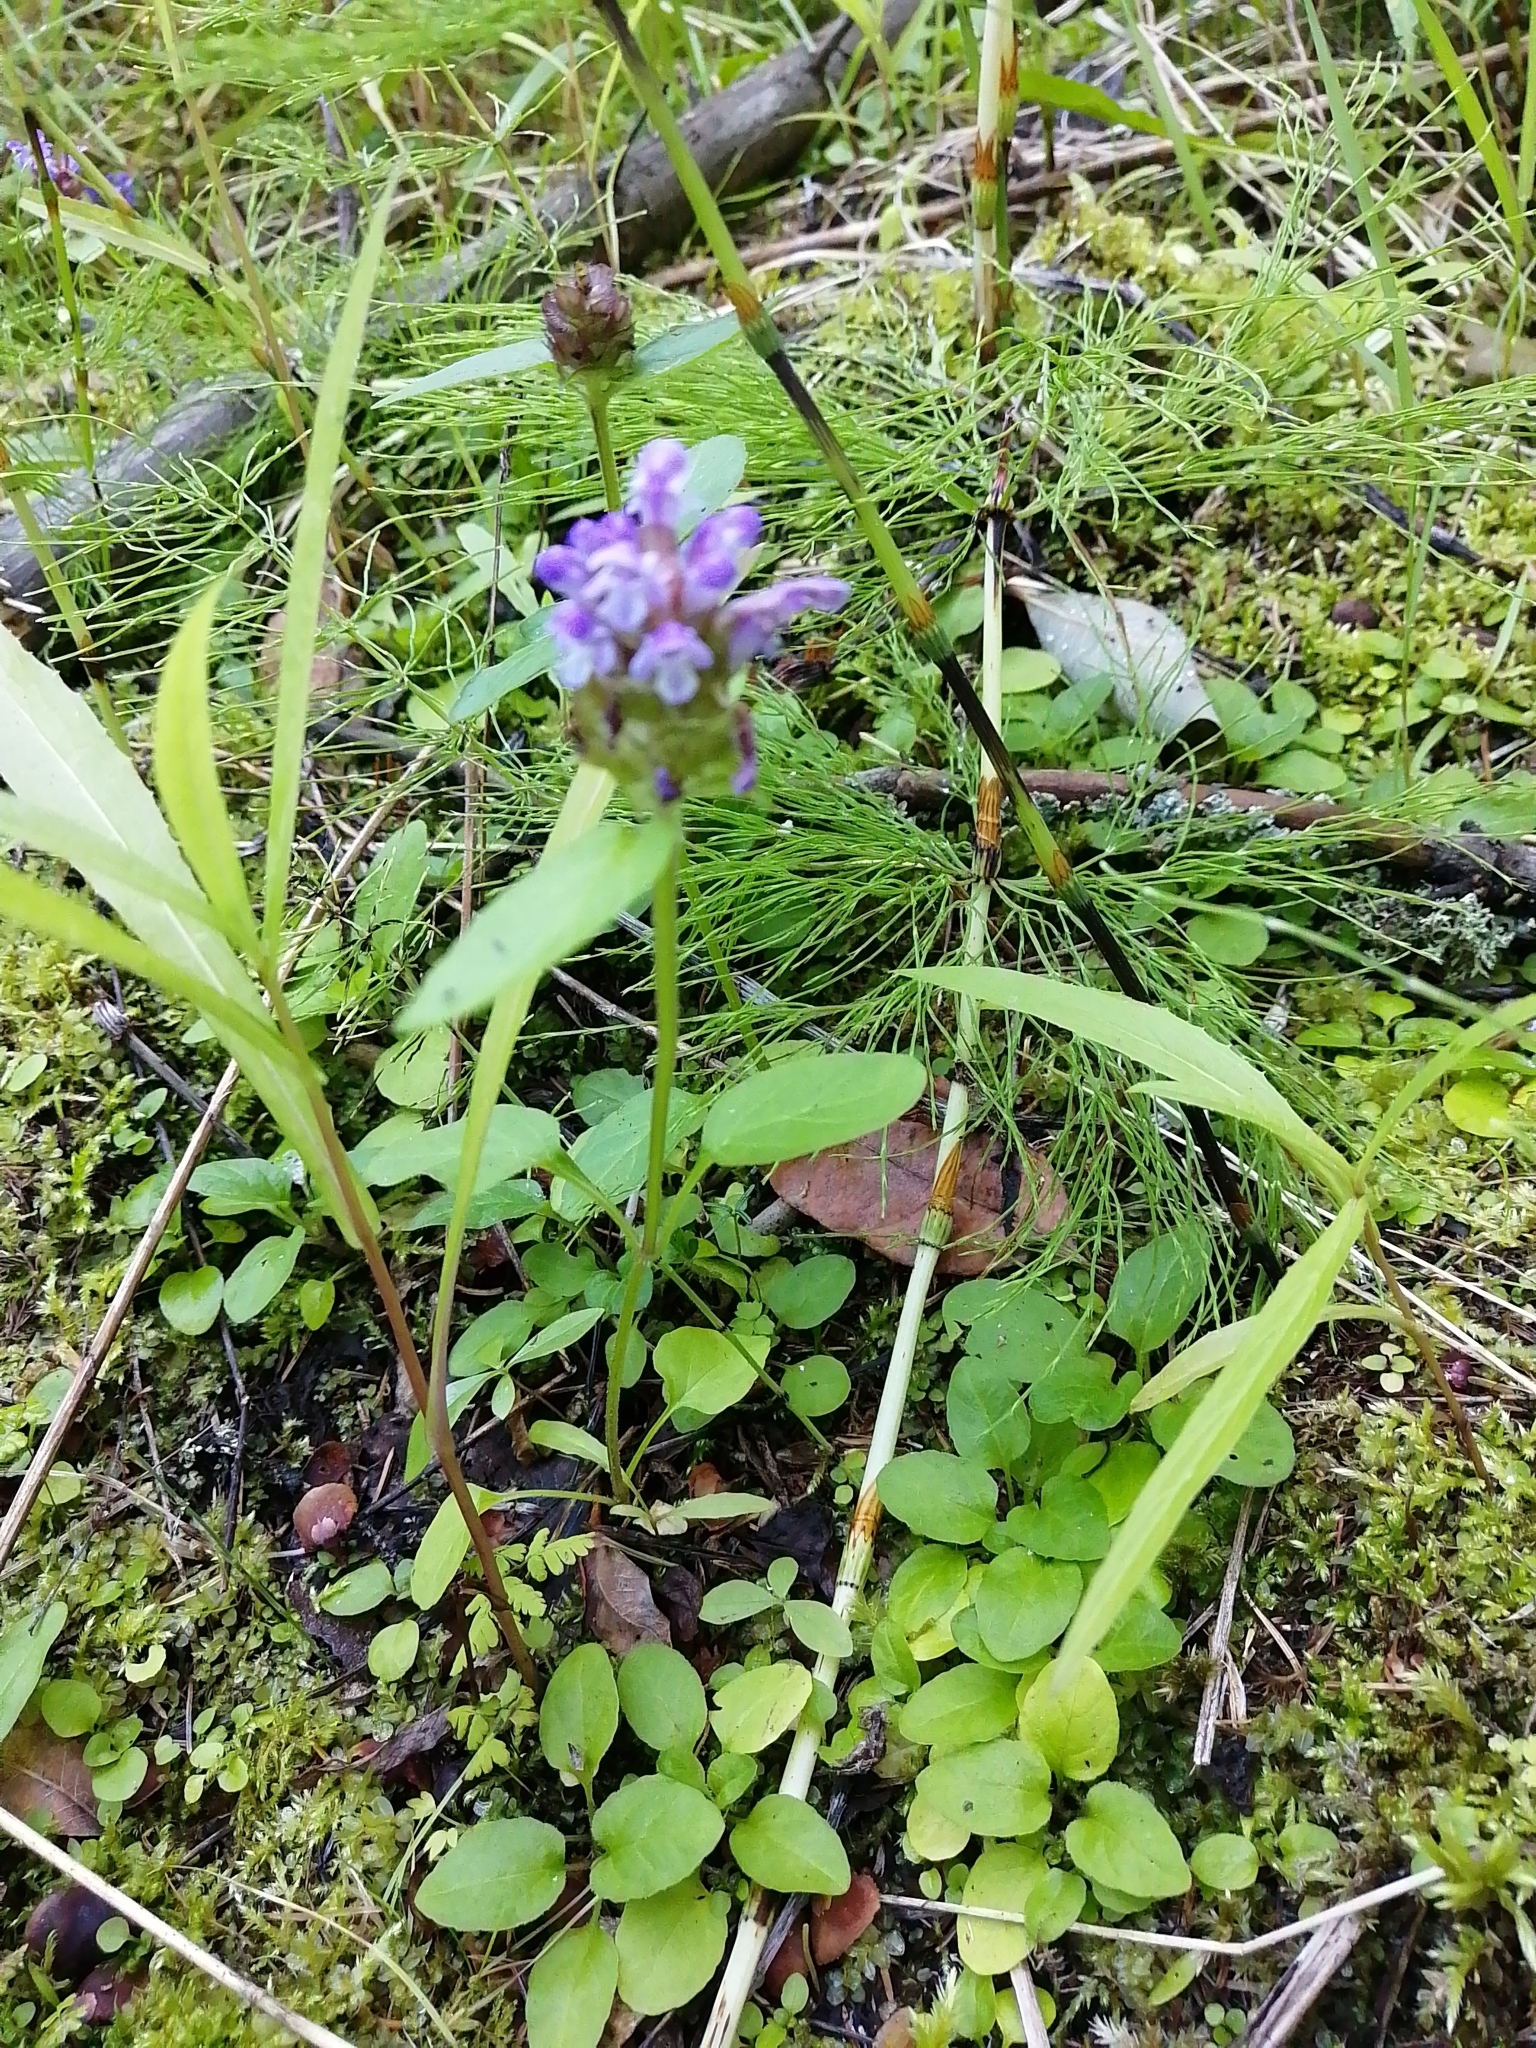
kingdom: Plantae
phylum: Tracheophyta
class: Magnoliopsida
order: Lamiales
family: Lamiaceae
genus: Prunella
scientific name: Prunella vulgaris
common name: Heal-all
